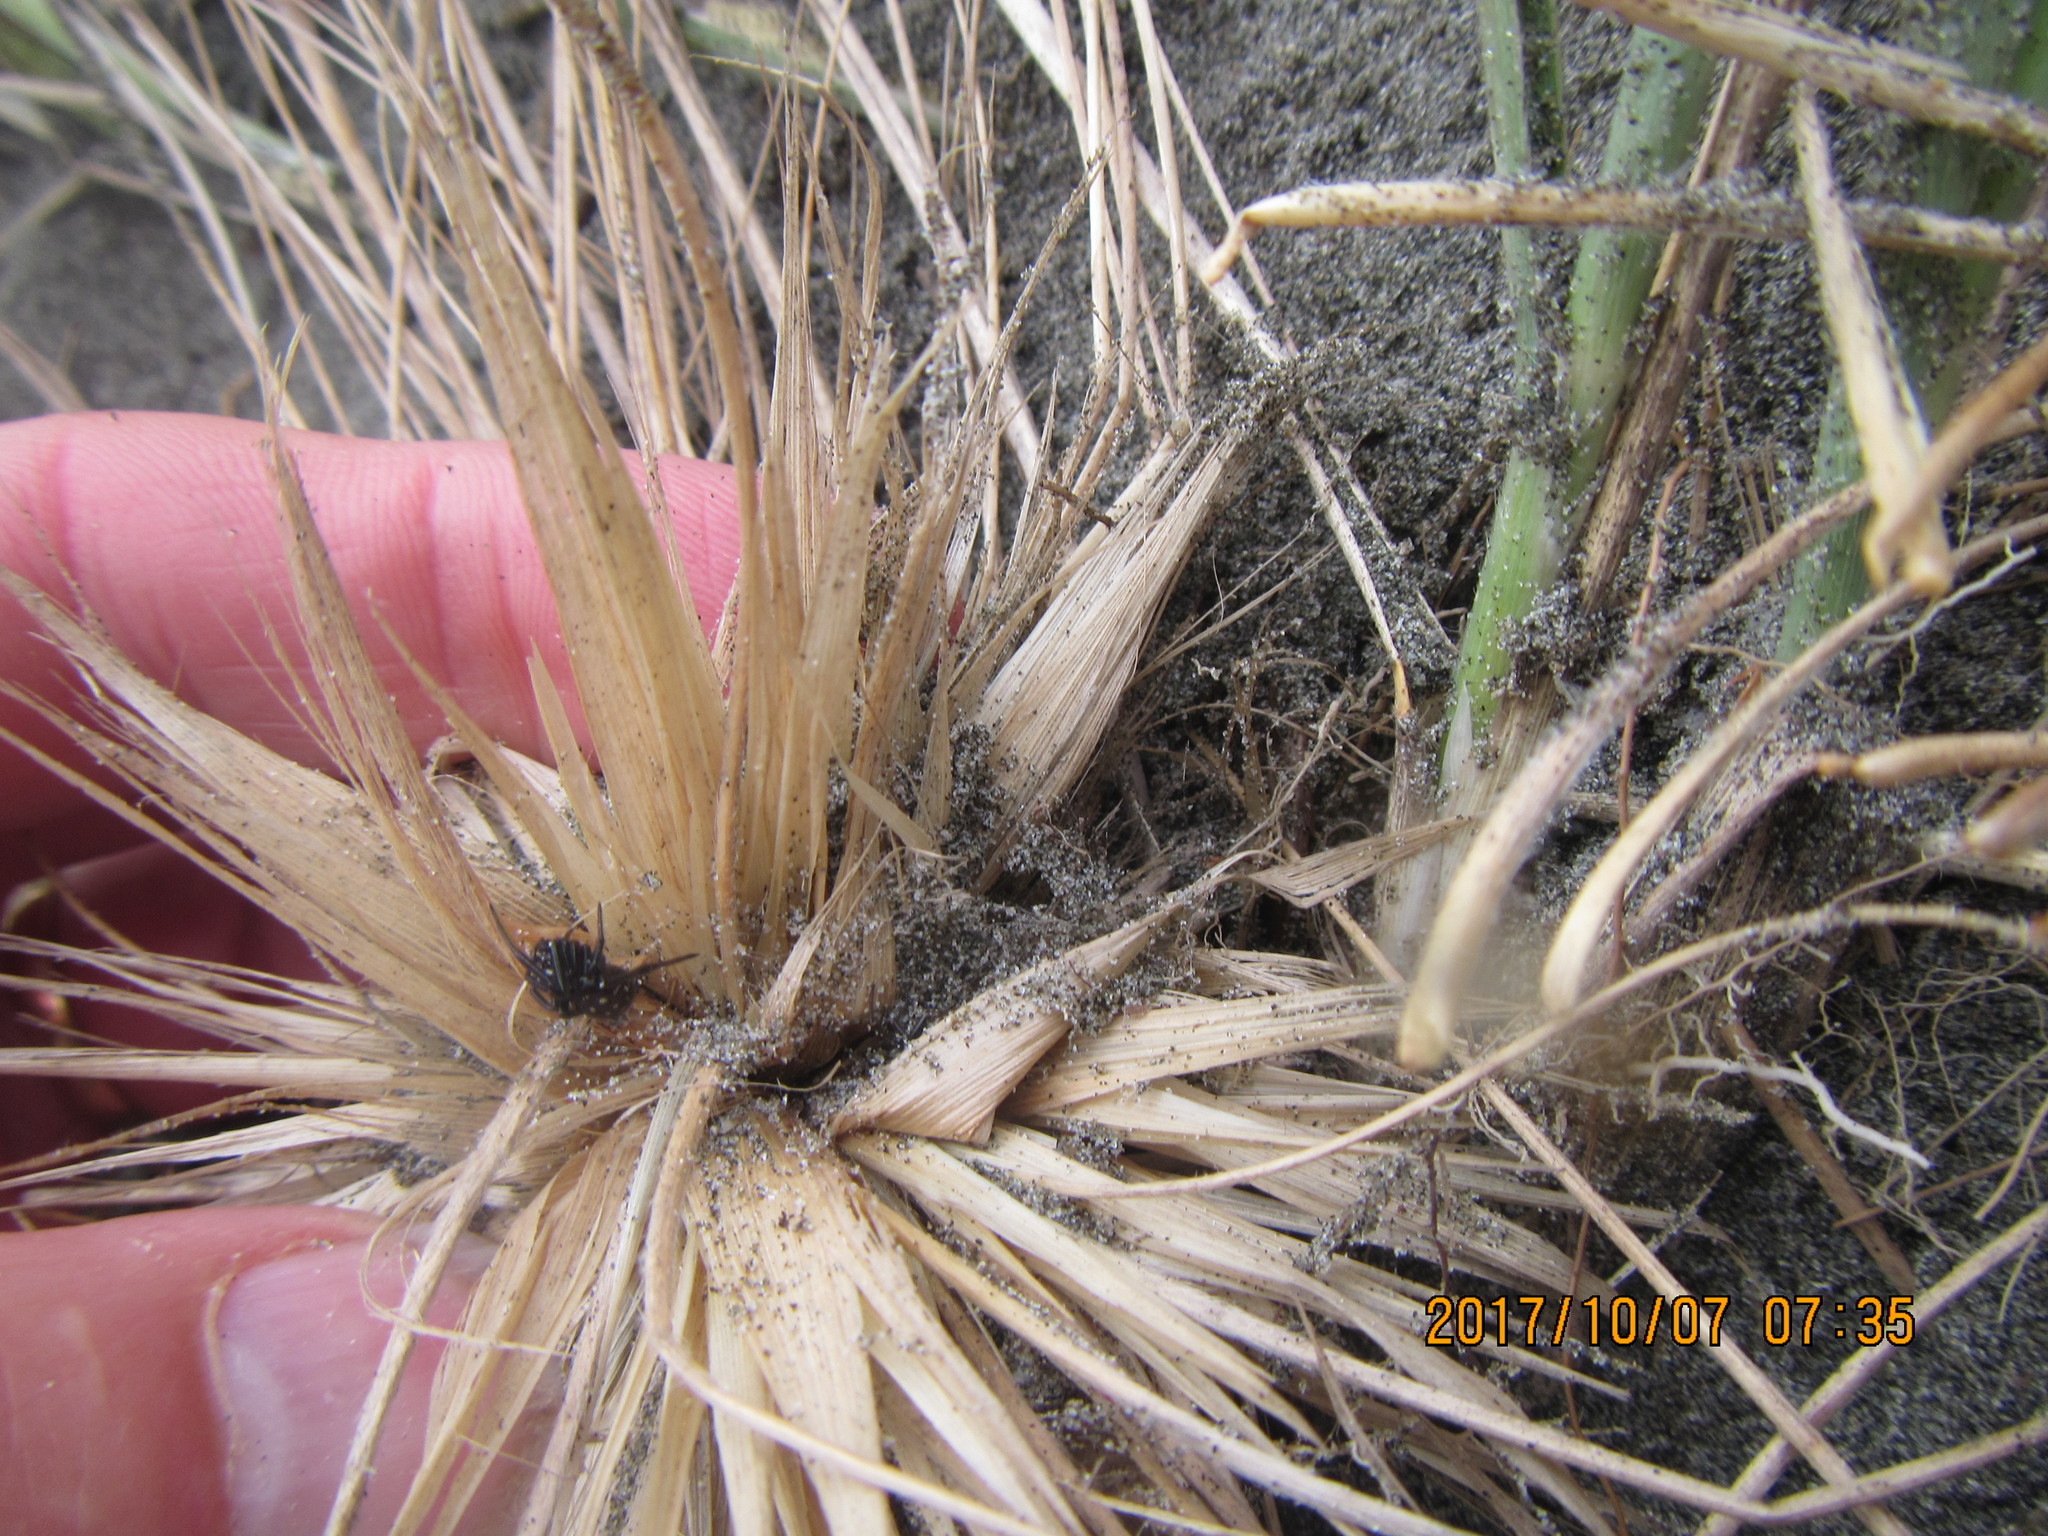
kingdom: Animalia
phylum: Arthropoda
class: Arachnida
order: Araneae
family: Theridiidae
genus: Steatoda
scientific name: Steatoda capensis
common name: Cobweb weaver
